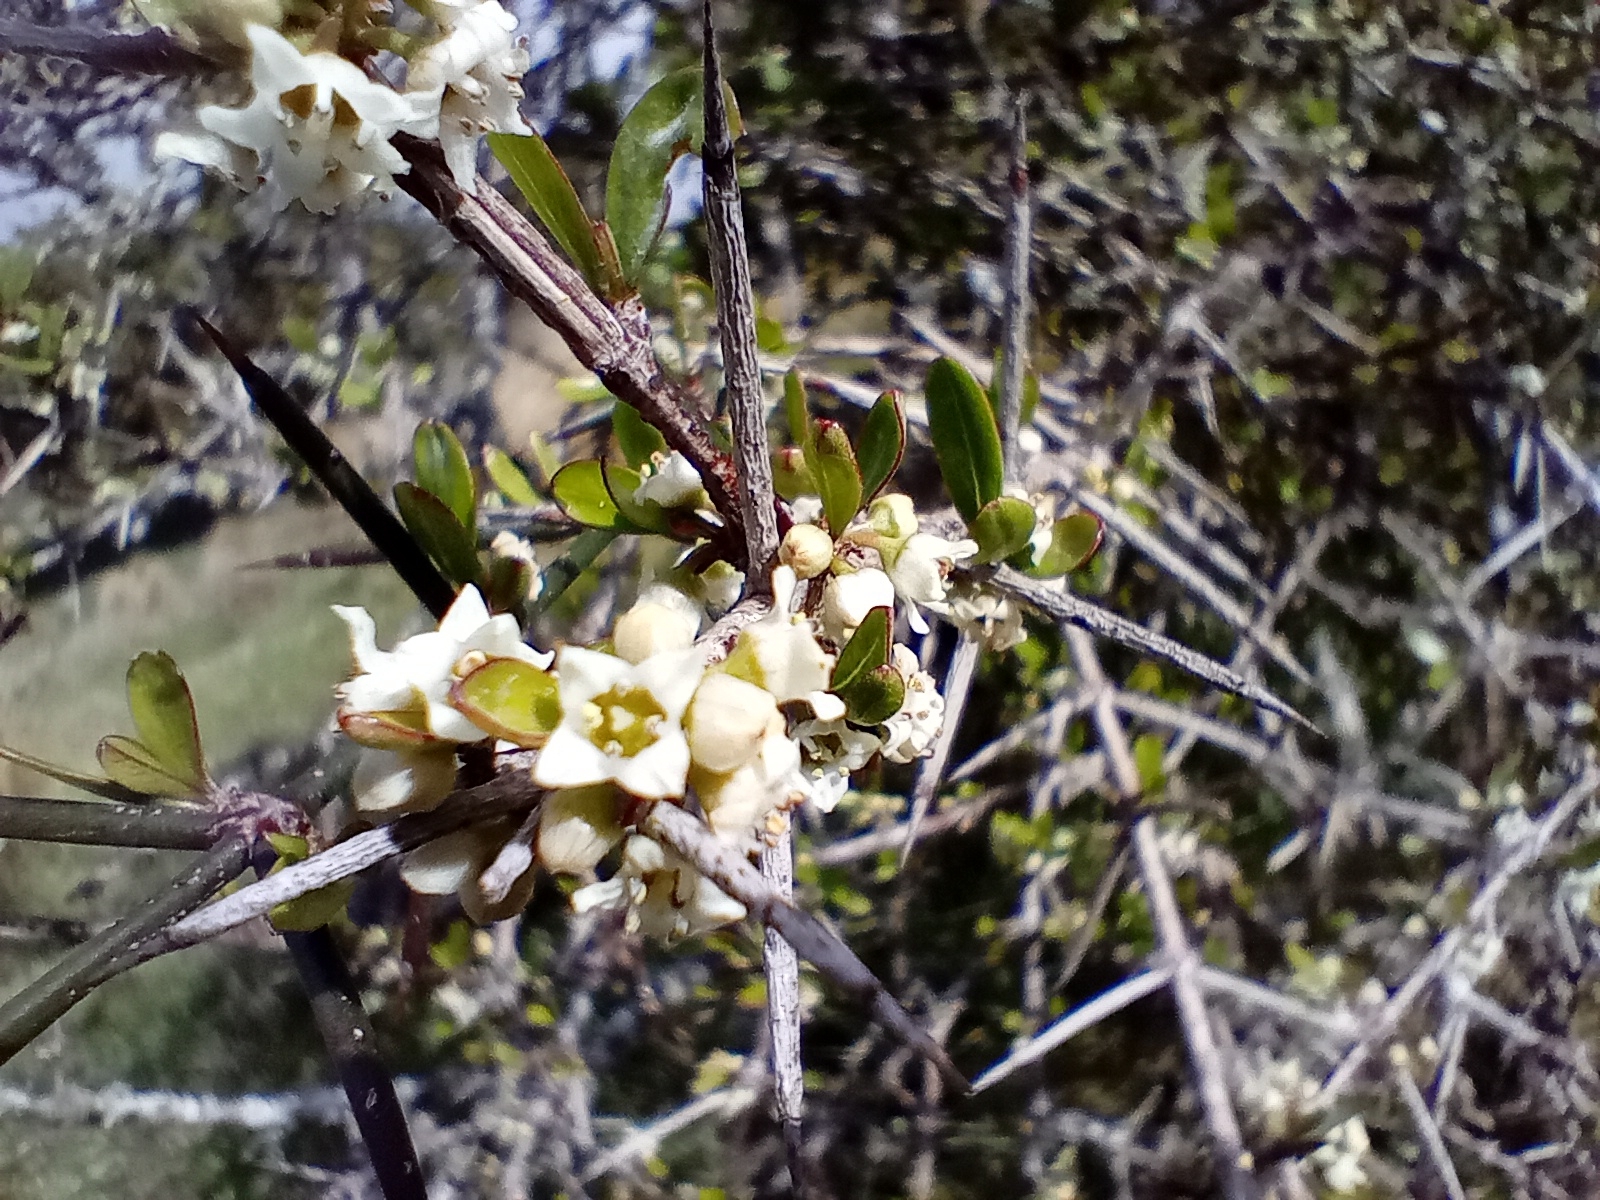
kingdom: Plantae
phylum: Tracheophyta
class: Magnoliopsida
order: Rosales
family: Rhamnaceae
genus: Discaria
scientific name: Discaria toumatou
